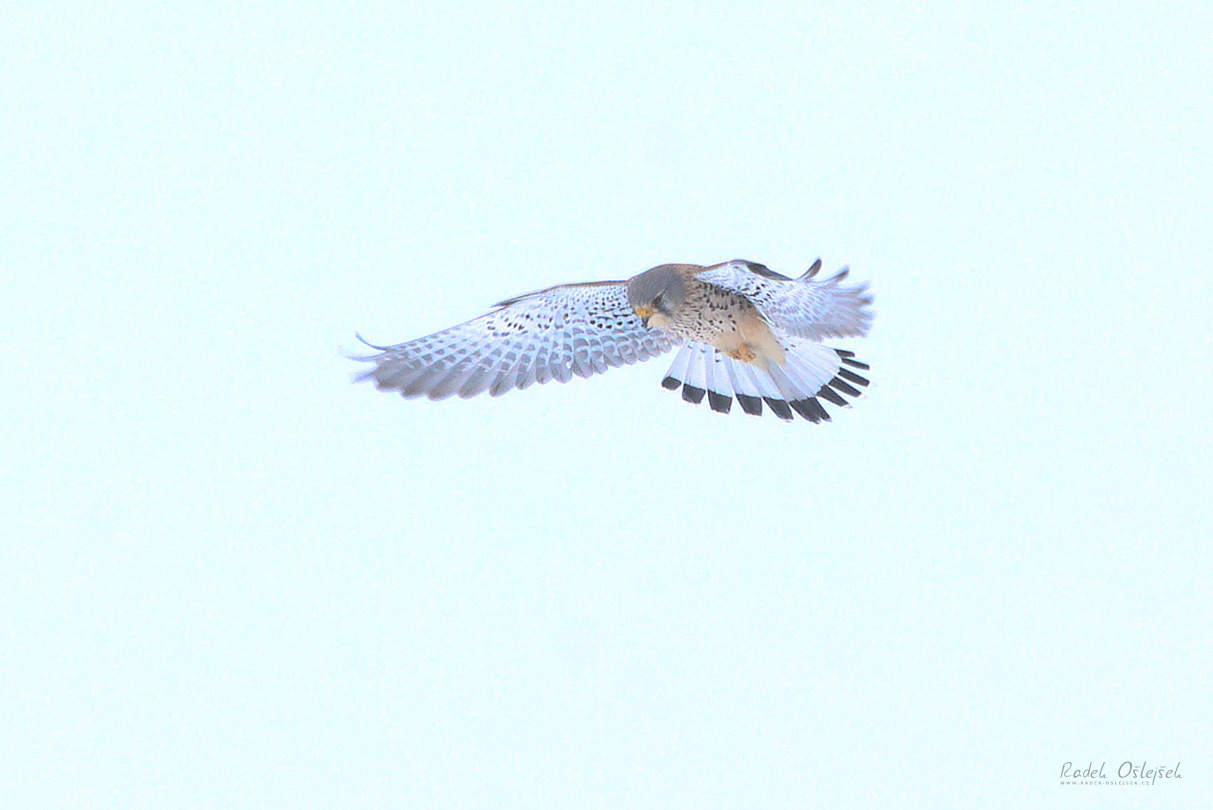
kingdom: Animalia
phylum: Chordata
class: Aves
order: Falconiformes
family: Falconidae
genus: Falco
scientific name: Falco tinnunculus
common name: Common kestrel
